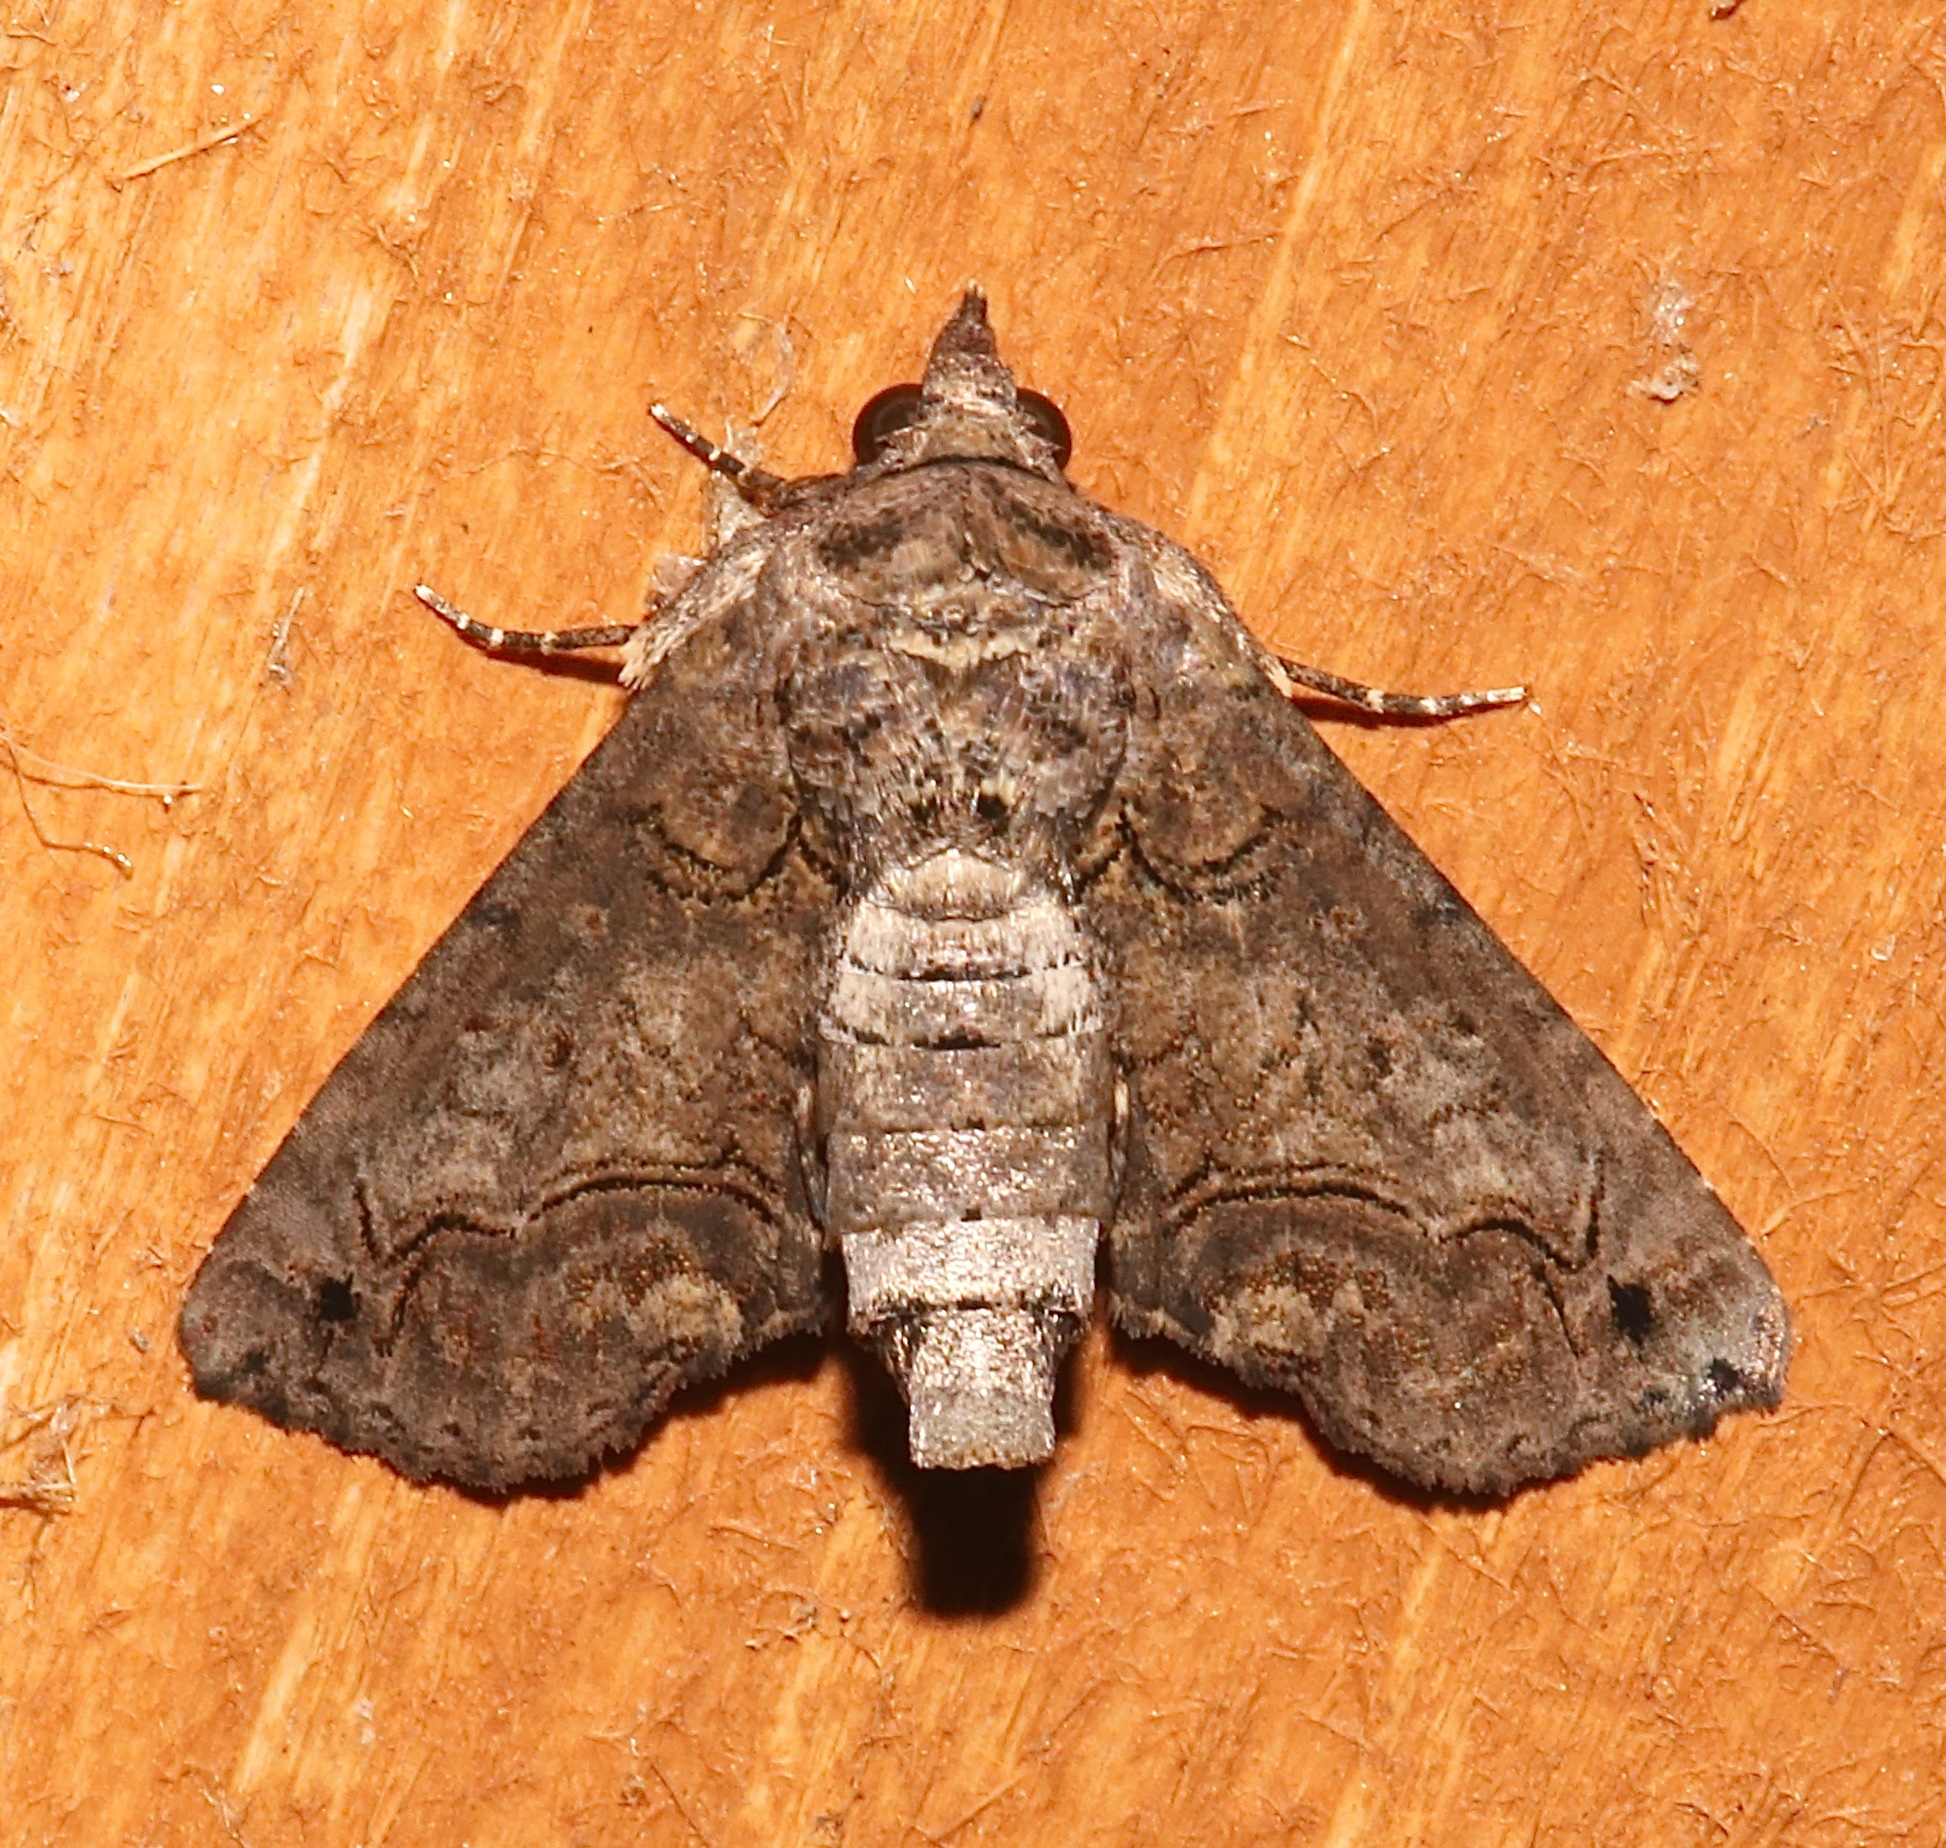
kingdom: Animalia
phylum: Arthropoda
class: Insecta
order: Lepidoptera
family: Euteliidae
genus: Paectes
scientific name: Paectes abrostoloides
